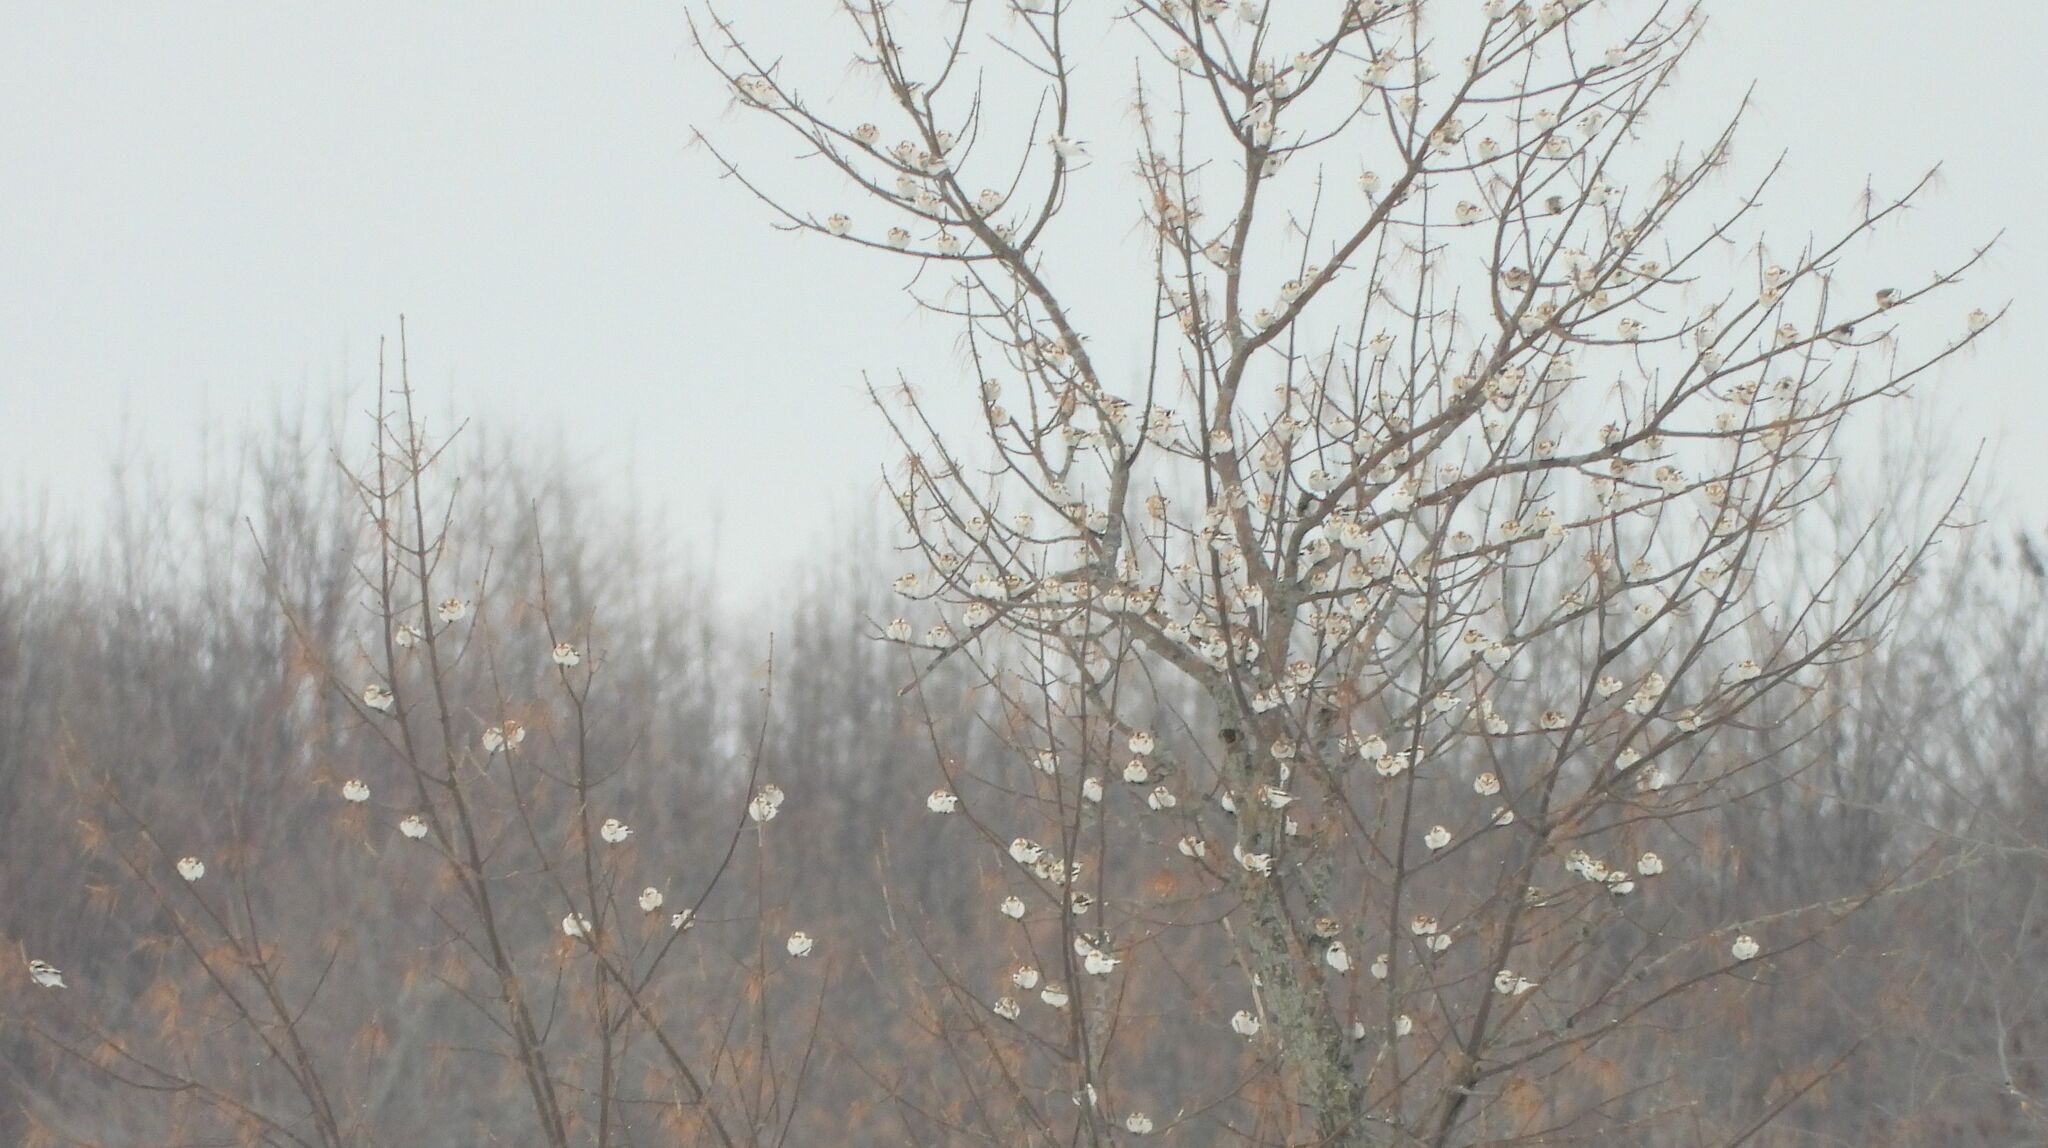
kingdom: Animalia
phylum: Chordata
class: Aves
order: Passeriformes
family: Calcariidae
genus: Plectrophenax
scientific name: Plectrophenax nivalis
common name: Snow bunting
